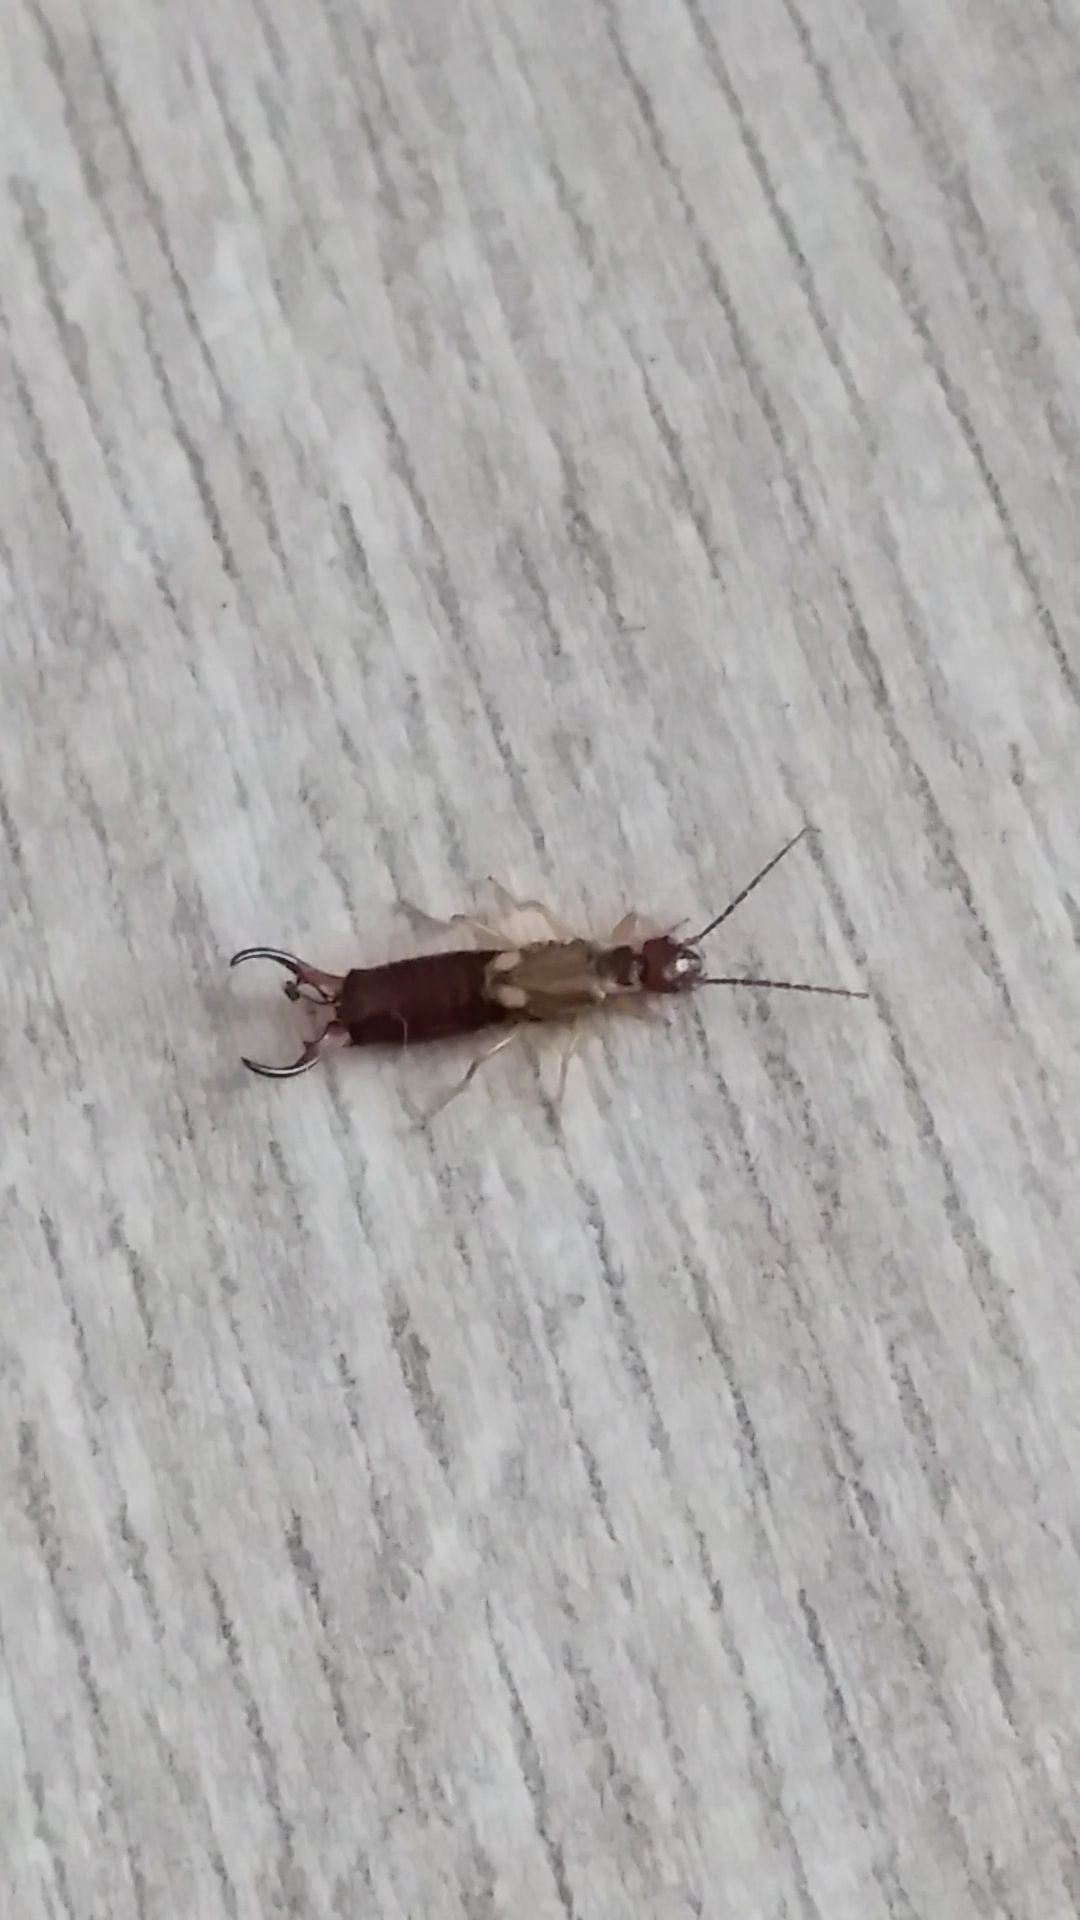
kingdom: Animalia
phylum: Arthropoda
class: Insecta
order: Dermaptera
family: Forficulidae
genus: Forficula
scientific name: Forficula
